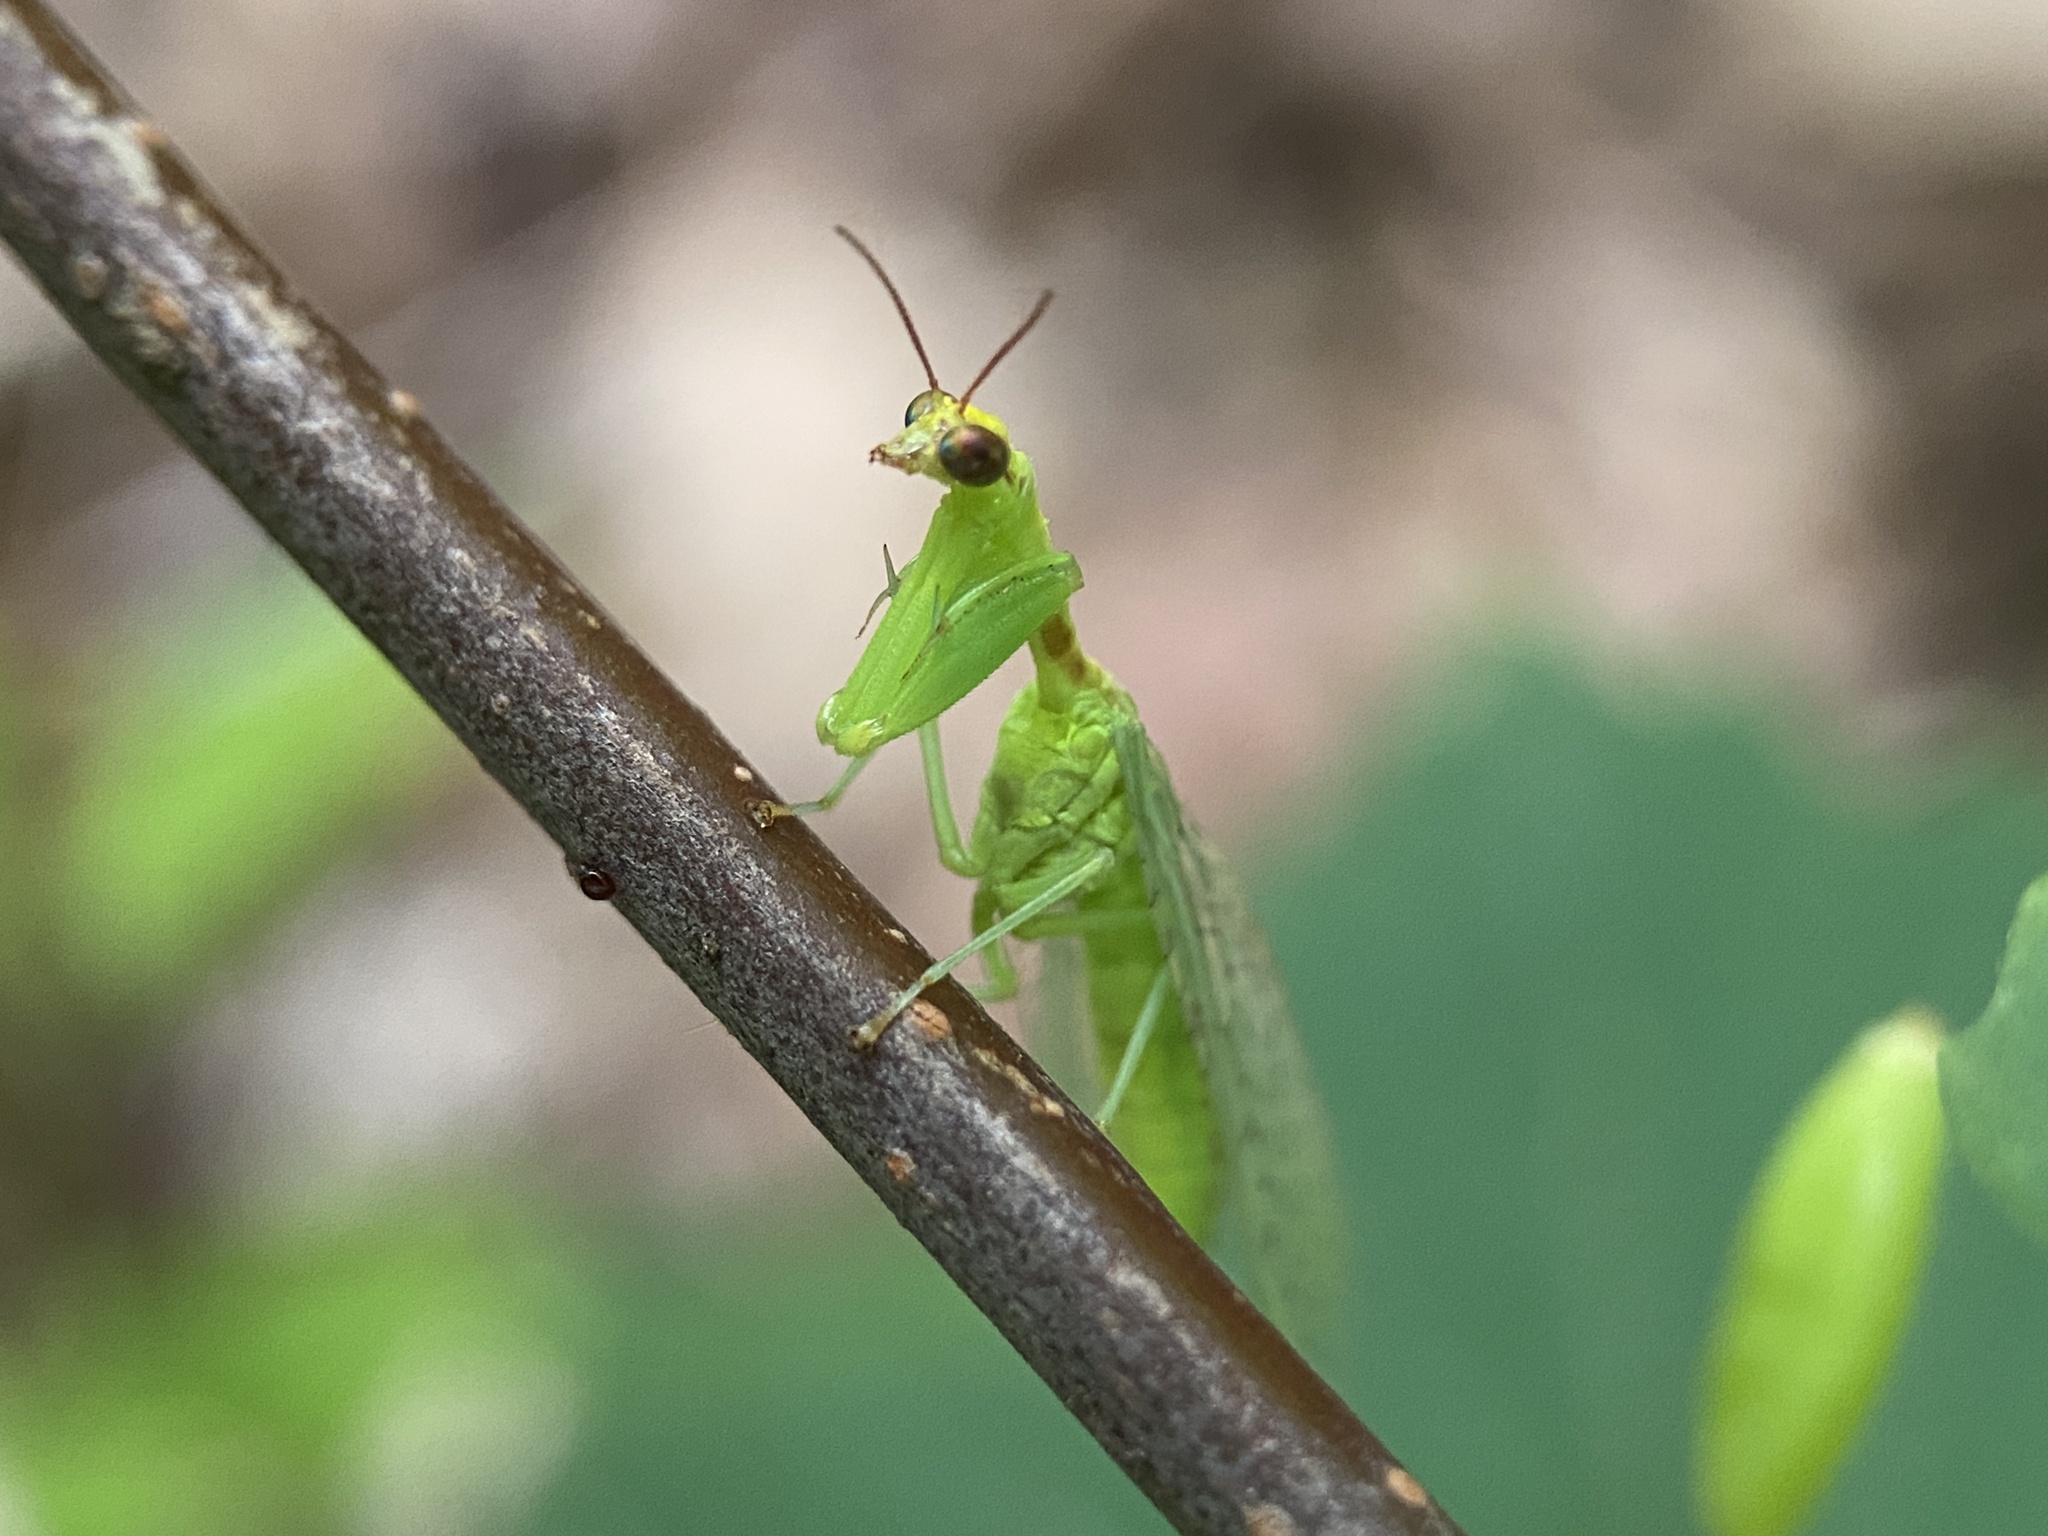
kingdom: Animalia
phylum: Arthropoda
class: Insecta
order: Neuroptera
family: Mantispidae
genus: Zeugomantispa
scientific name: Zeugomantispa minuta
